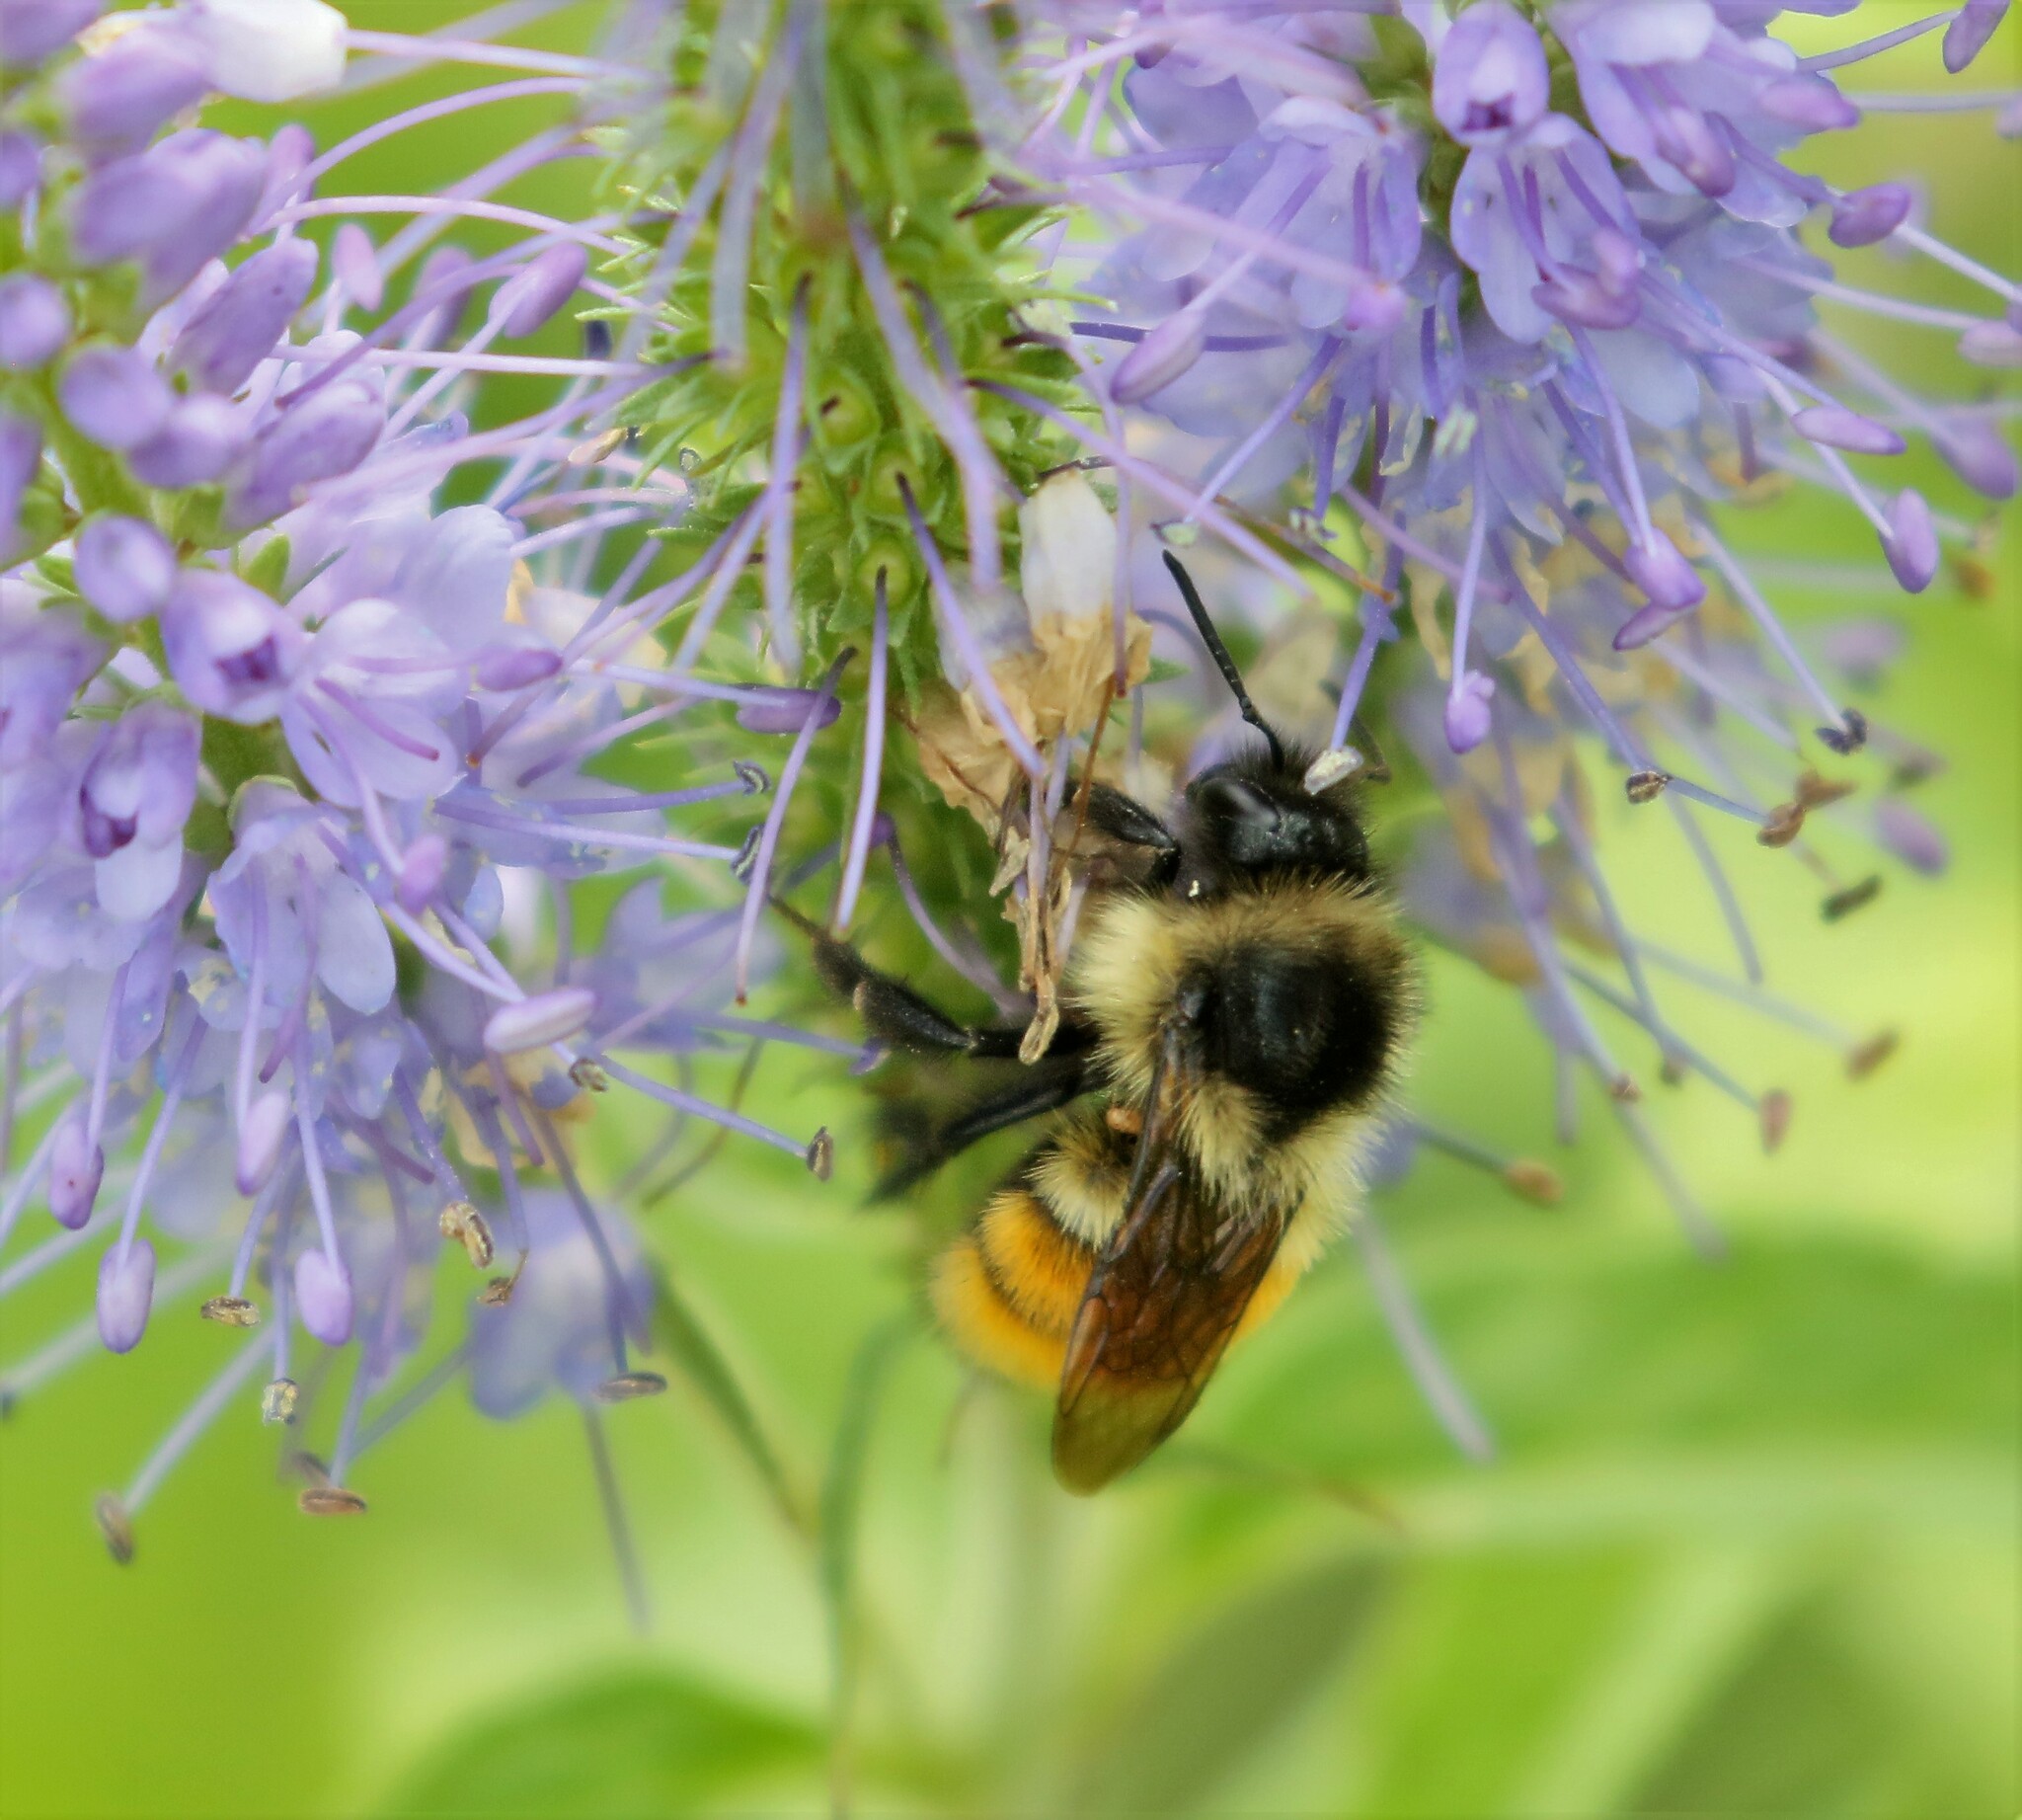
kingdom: Animalia
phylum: Arthropoda
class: Insecta
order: Hymenoptera
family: Apidae
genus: Bombus
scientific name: Bombus ternarius
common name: Tri-colored bumble bee
